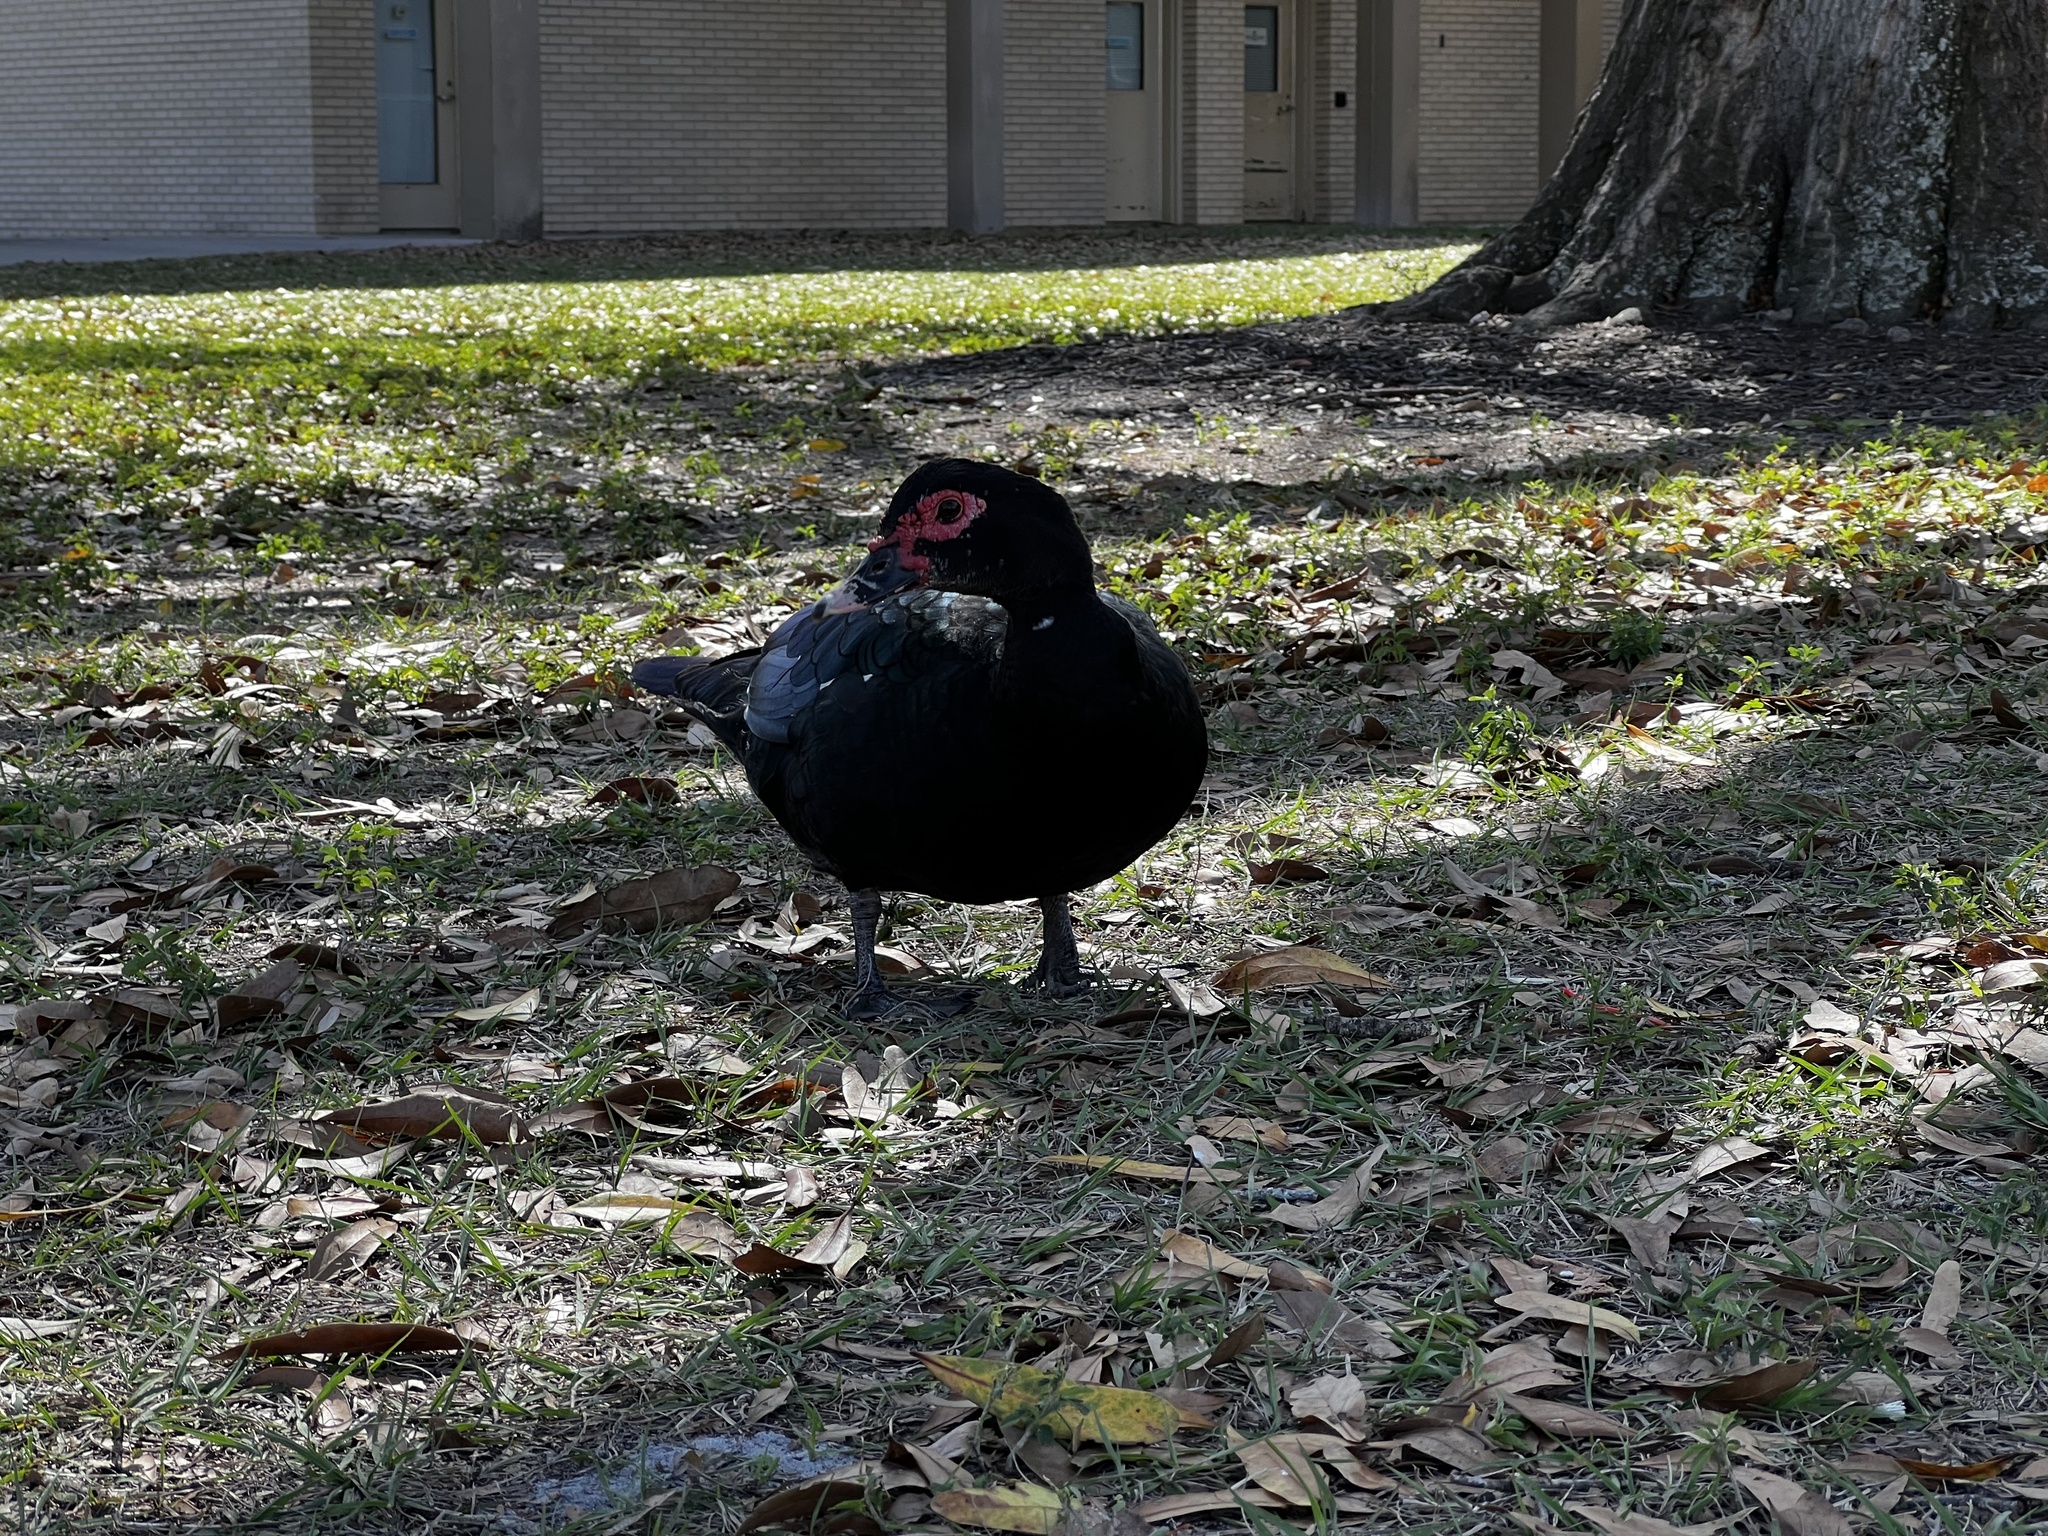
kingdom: Animalia
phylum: Chordata
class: Aves
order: Anseriformes
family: Anatidae
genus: Cairina
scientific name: Cairina moschata
